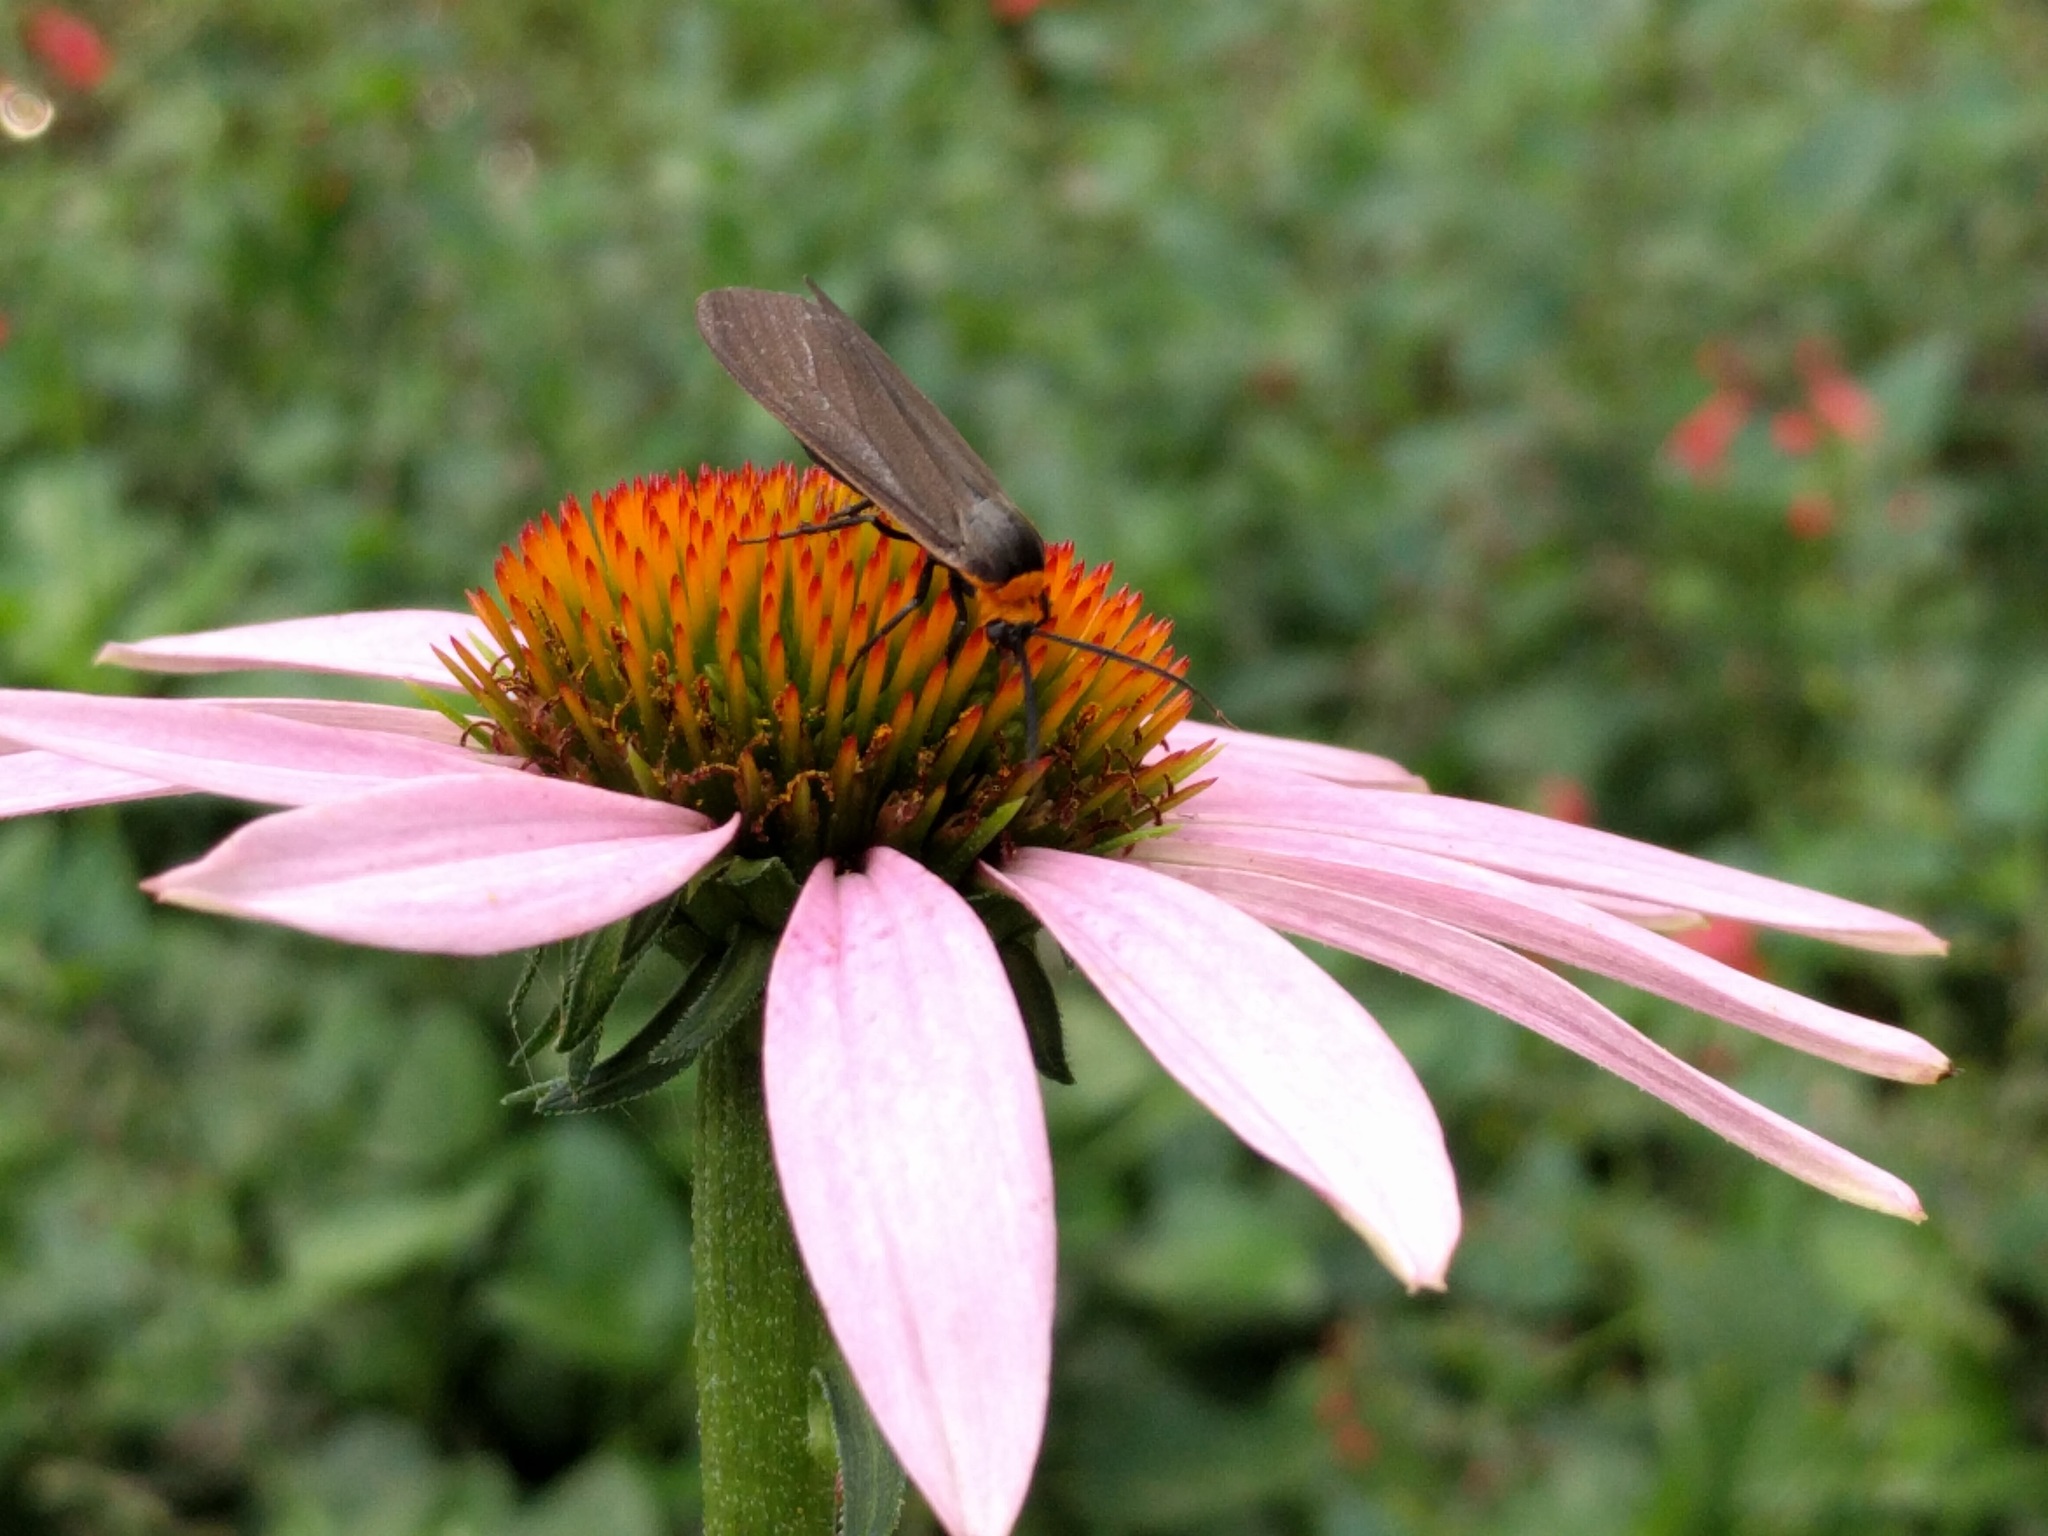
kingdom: Animalia
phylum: Arthropoda
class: Insecta
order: Lepidoptera
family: Erebidae
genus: Cisseps
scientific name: Cisseps fulvicollis
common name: Yellow-collared scape moth
